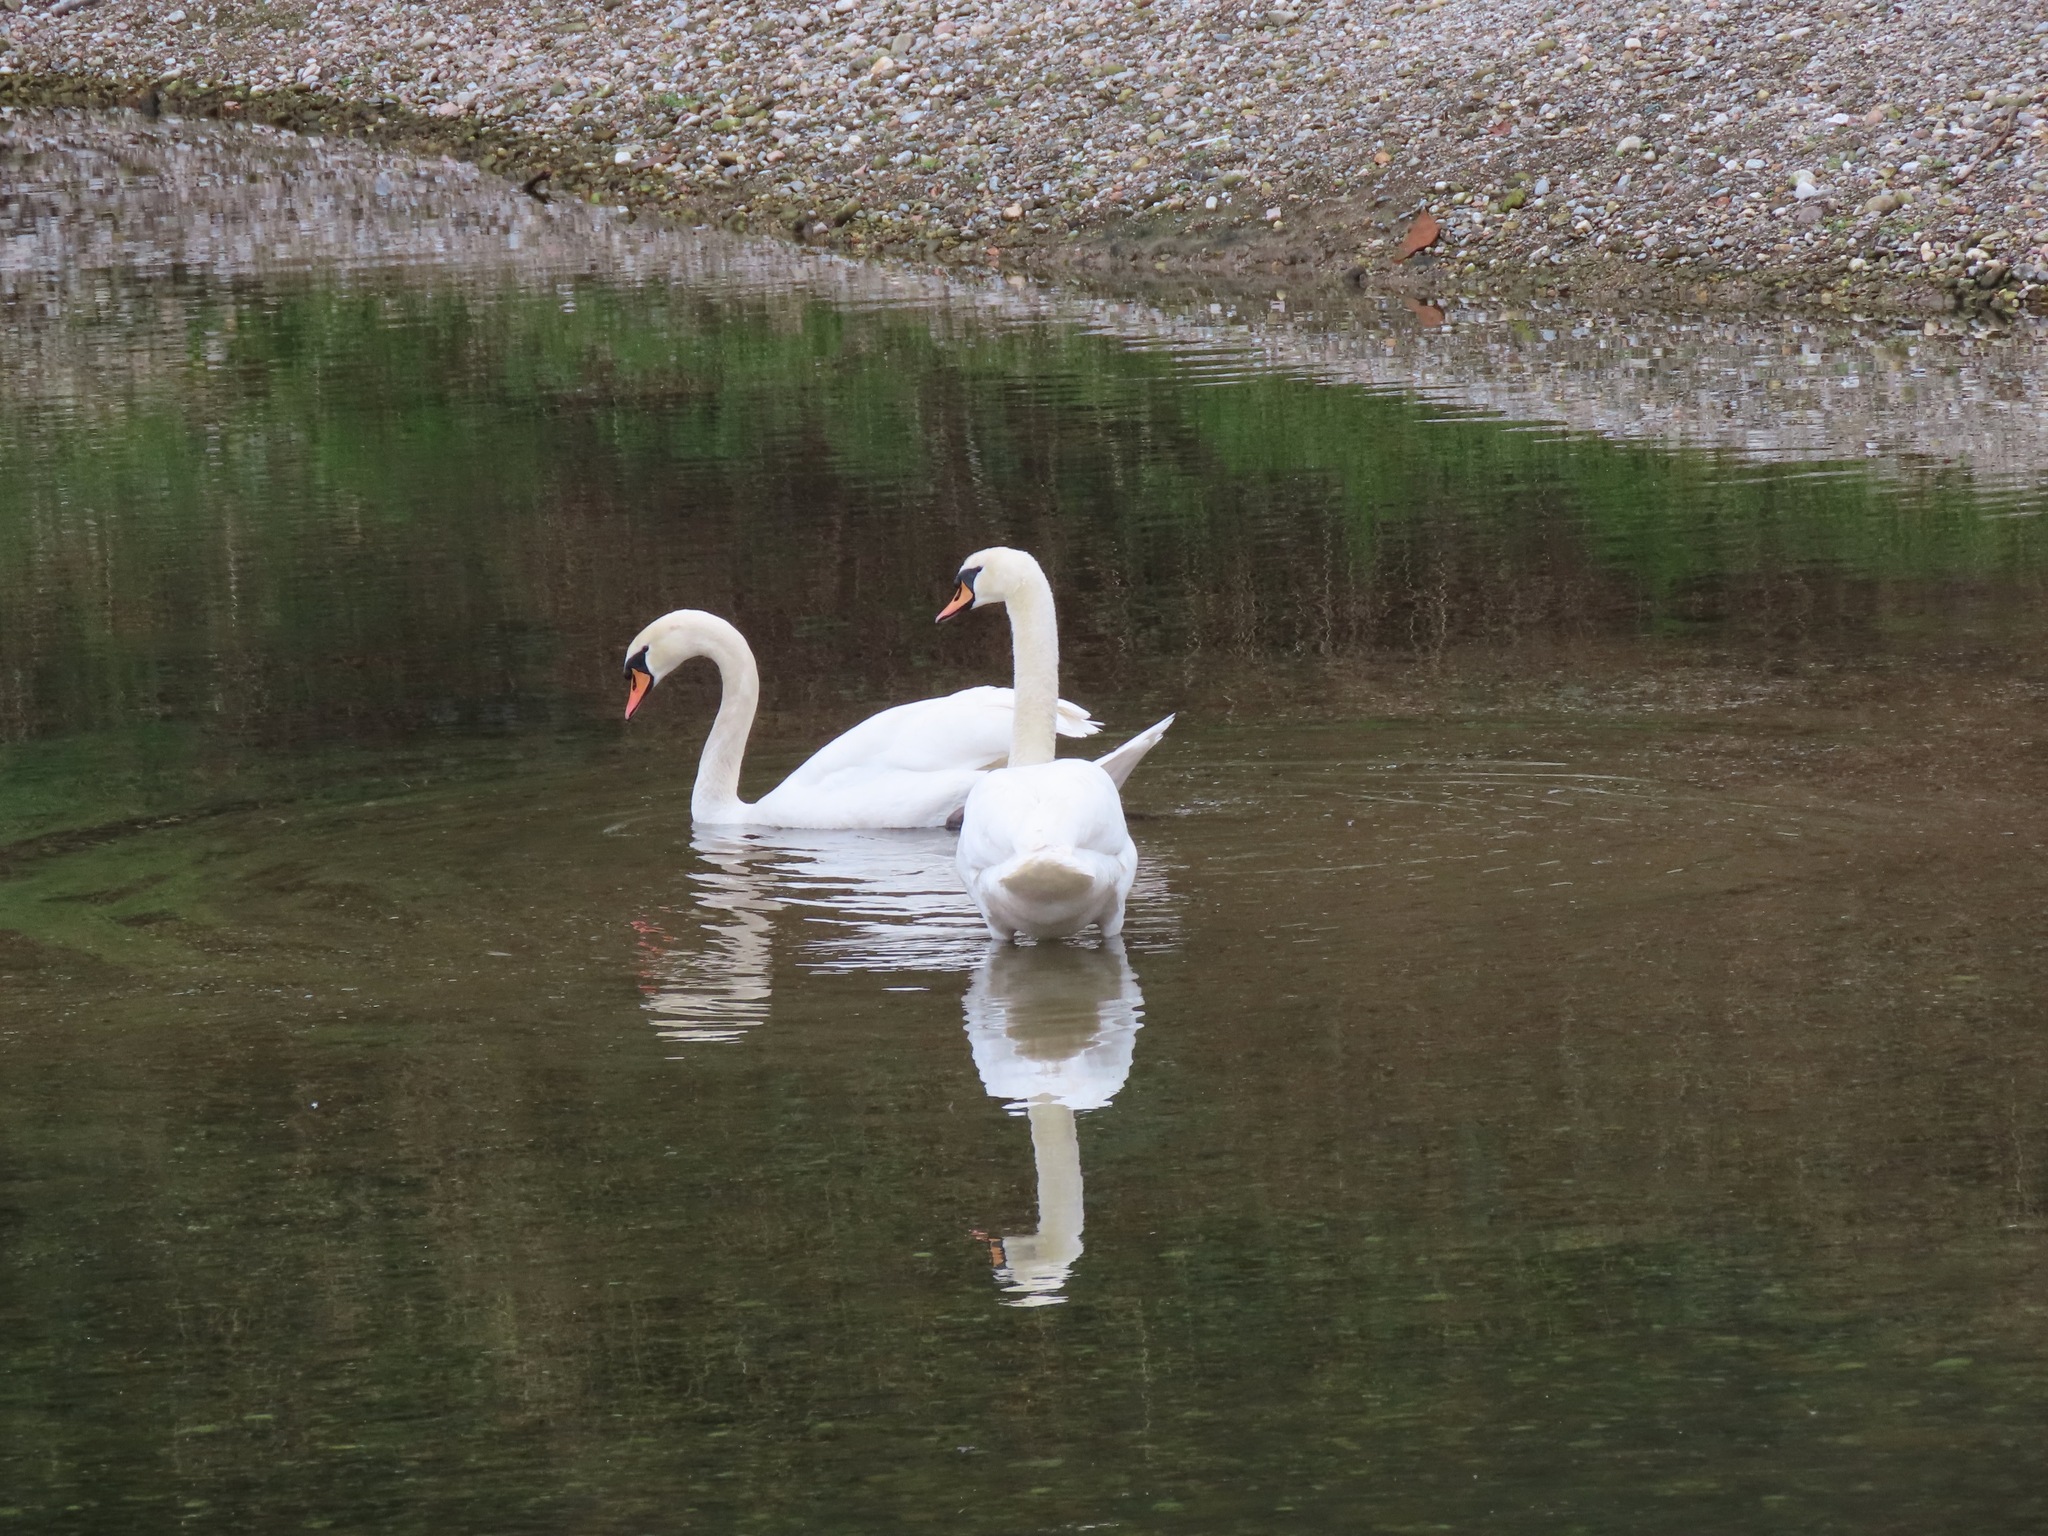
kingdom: Animalia
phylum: Chordata
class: Aves
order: Anseriformes
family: Anatidae
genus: Cygnus
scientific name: Cygnus olor
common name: Mute swan
